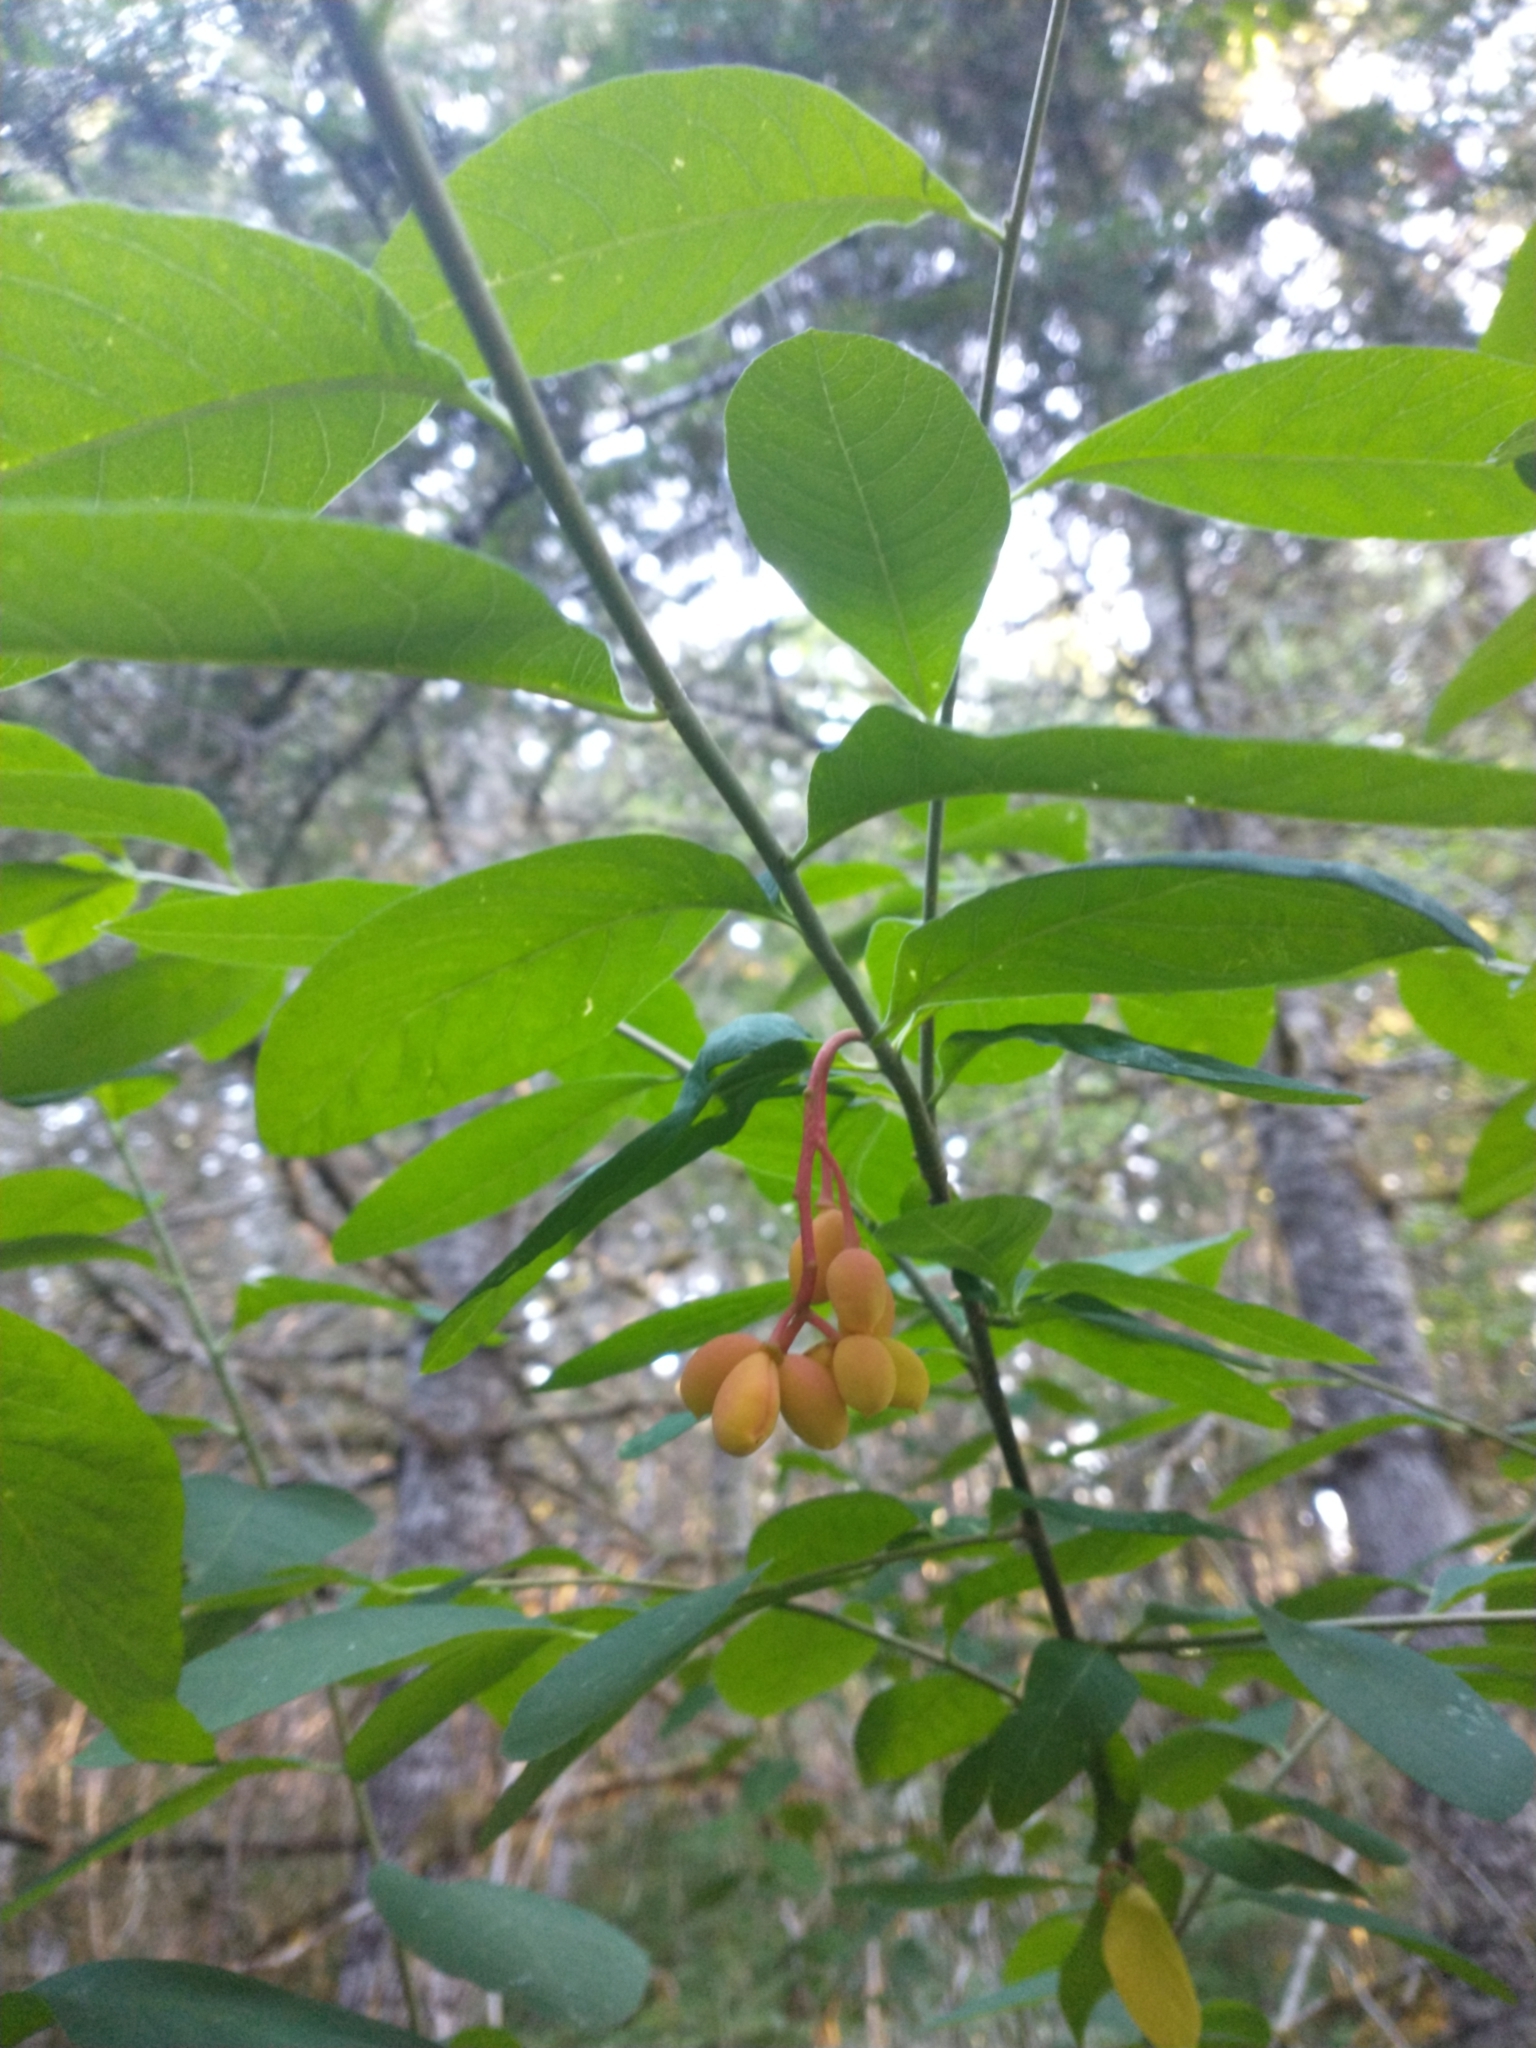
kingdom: Plantae
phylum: Tracheophyta
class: Magnoliopsida
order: Rosales
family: Rosaceae
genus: Oemleria
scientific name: Oemleria cerasiformis
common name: Osoberry
